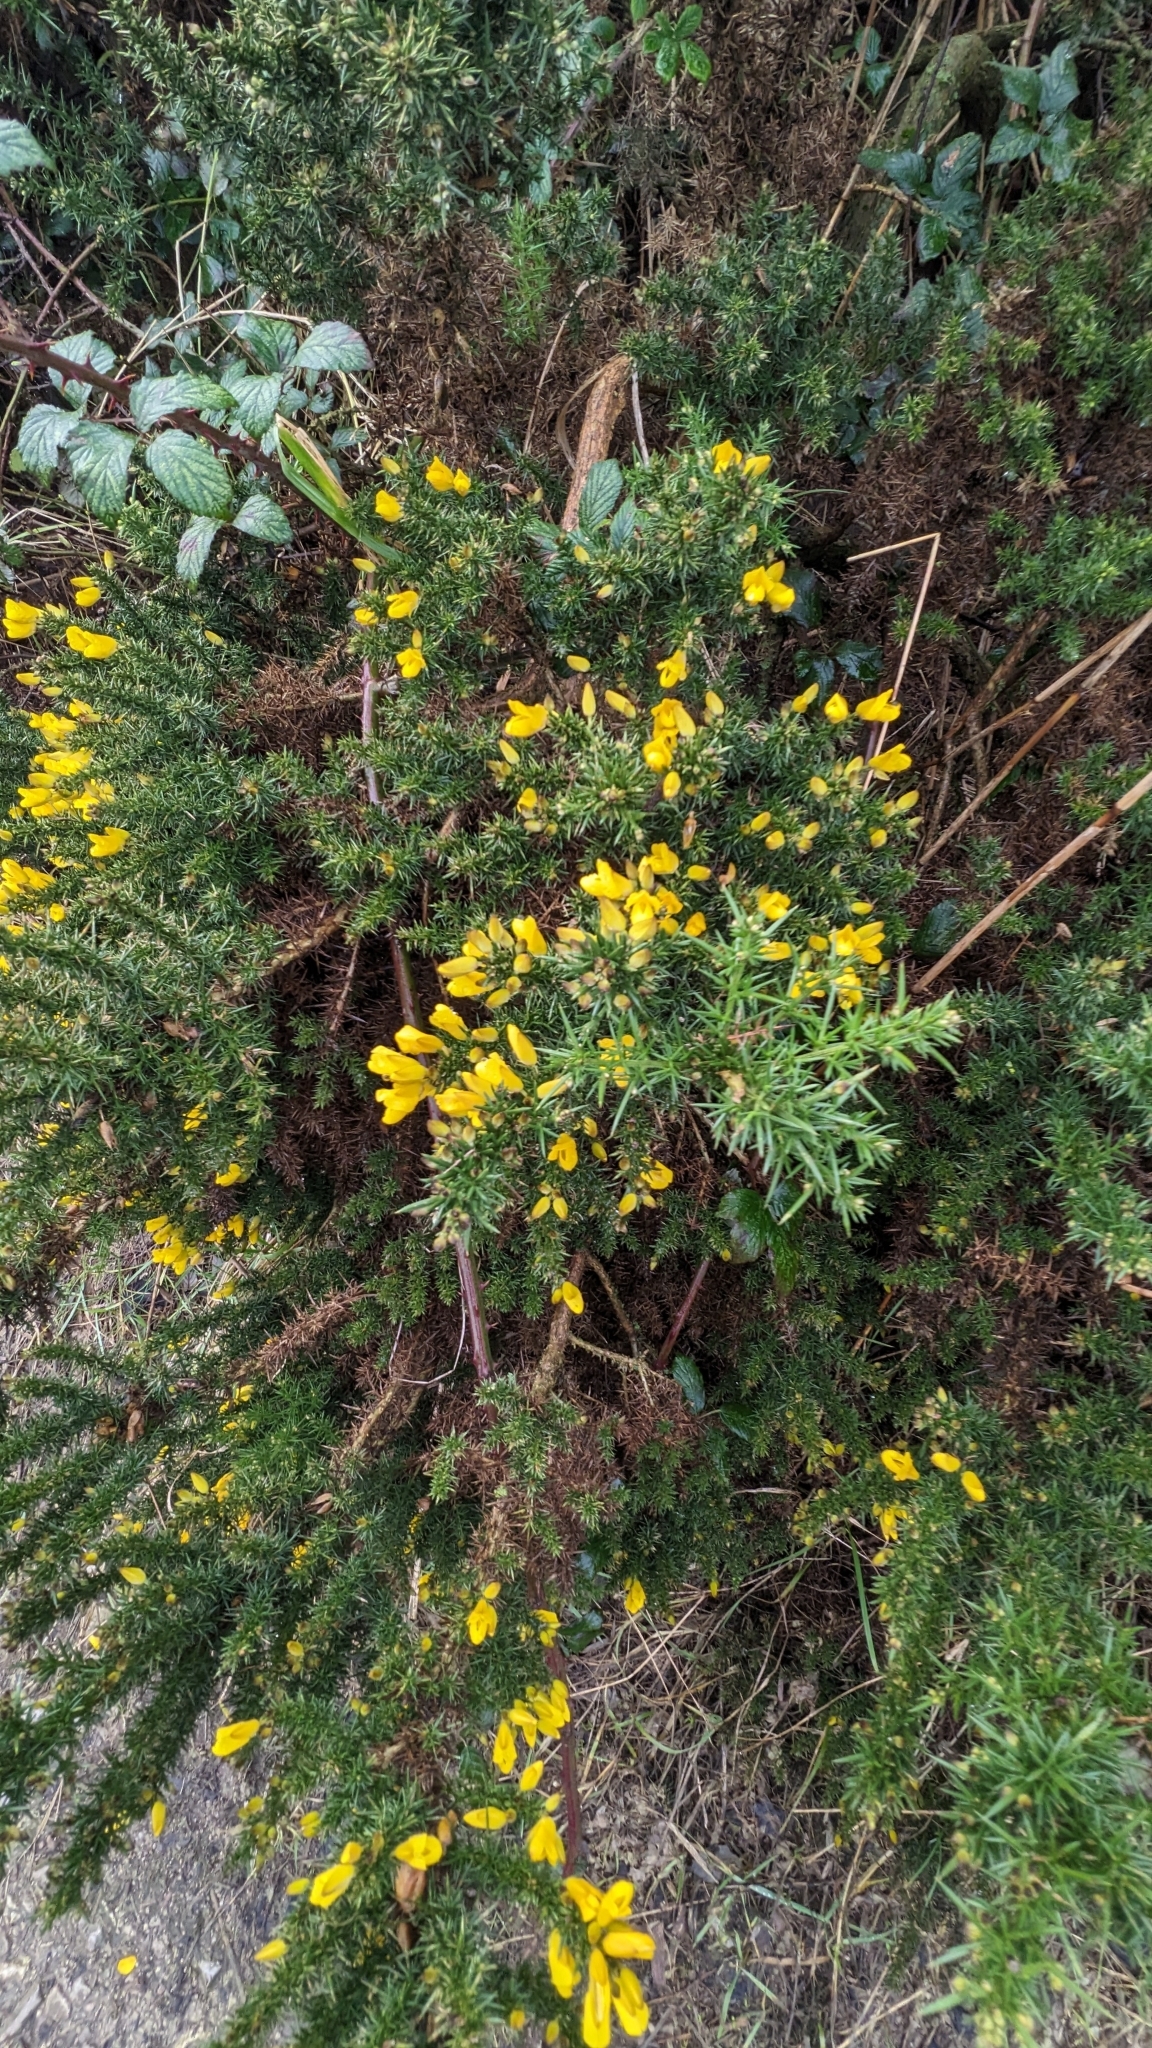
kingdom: Plantae
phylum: Tracheophyta
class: Magnoliopsida
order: Fabales
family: Fabaceae
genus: Ulex
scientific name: Ulex europaeus
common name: Common gorse
